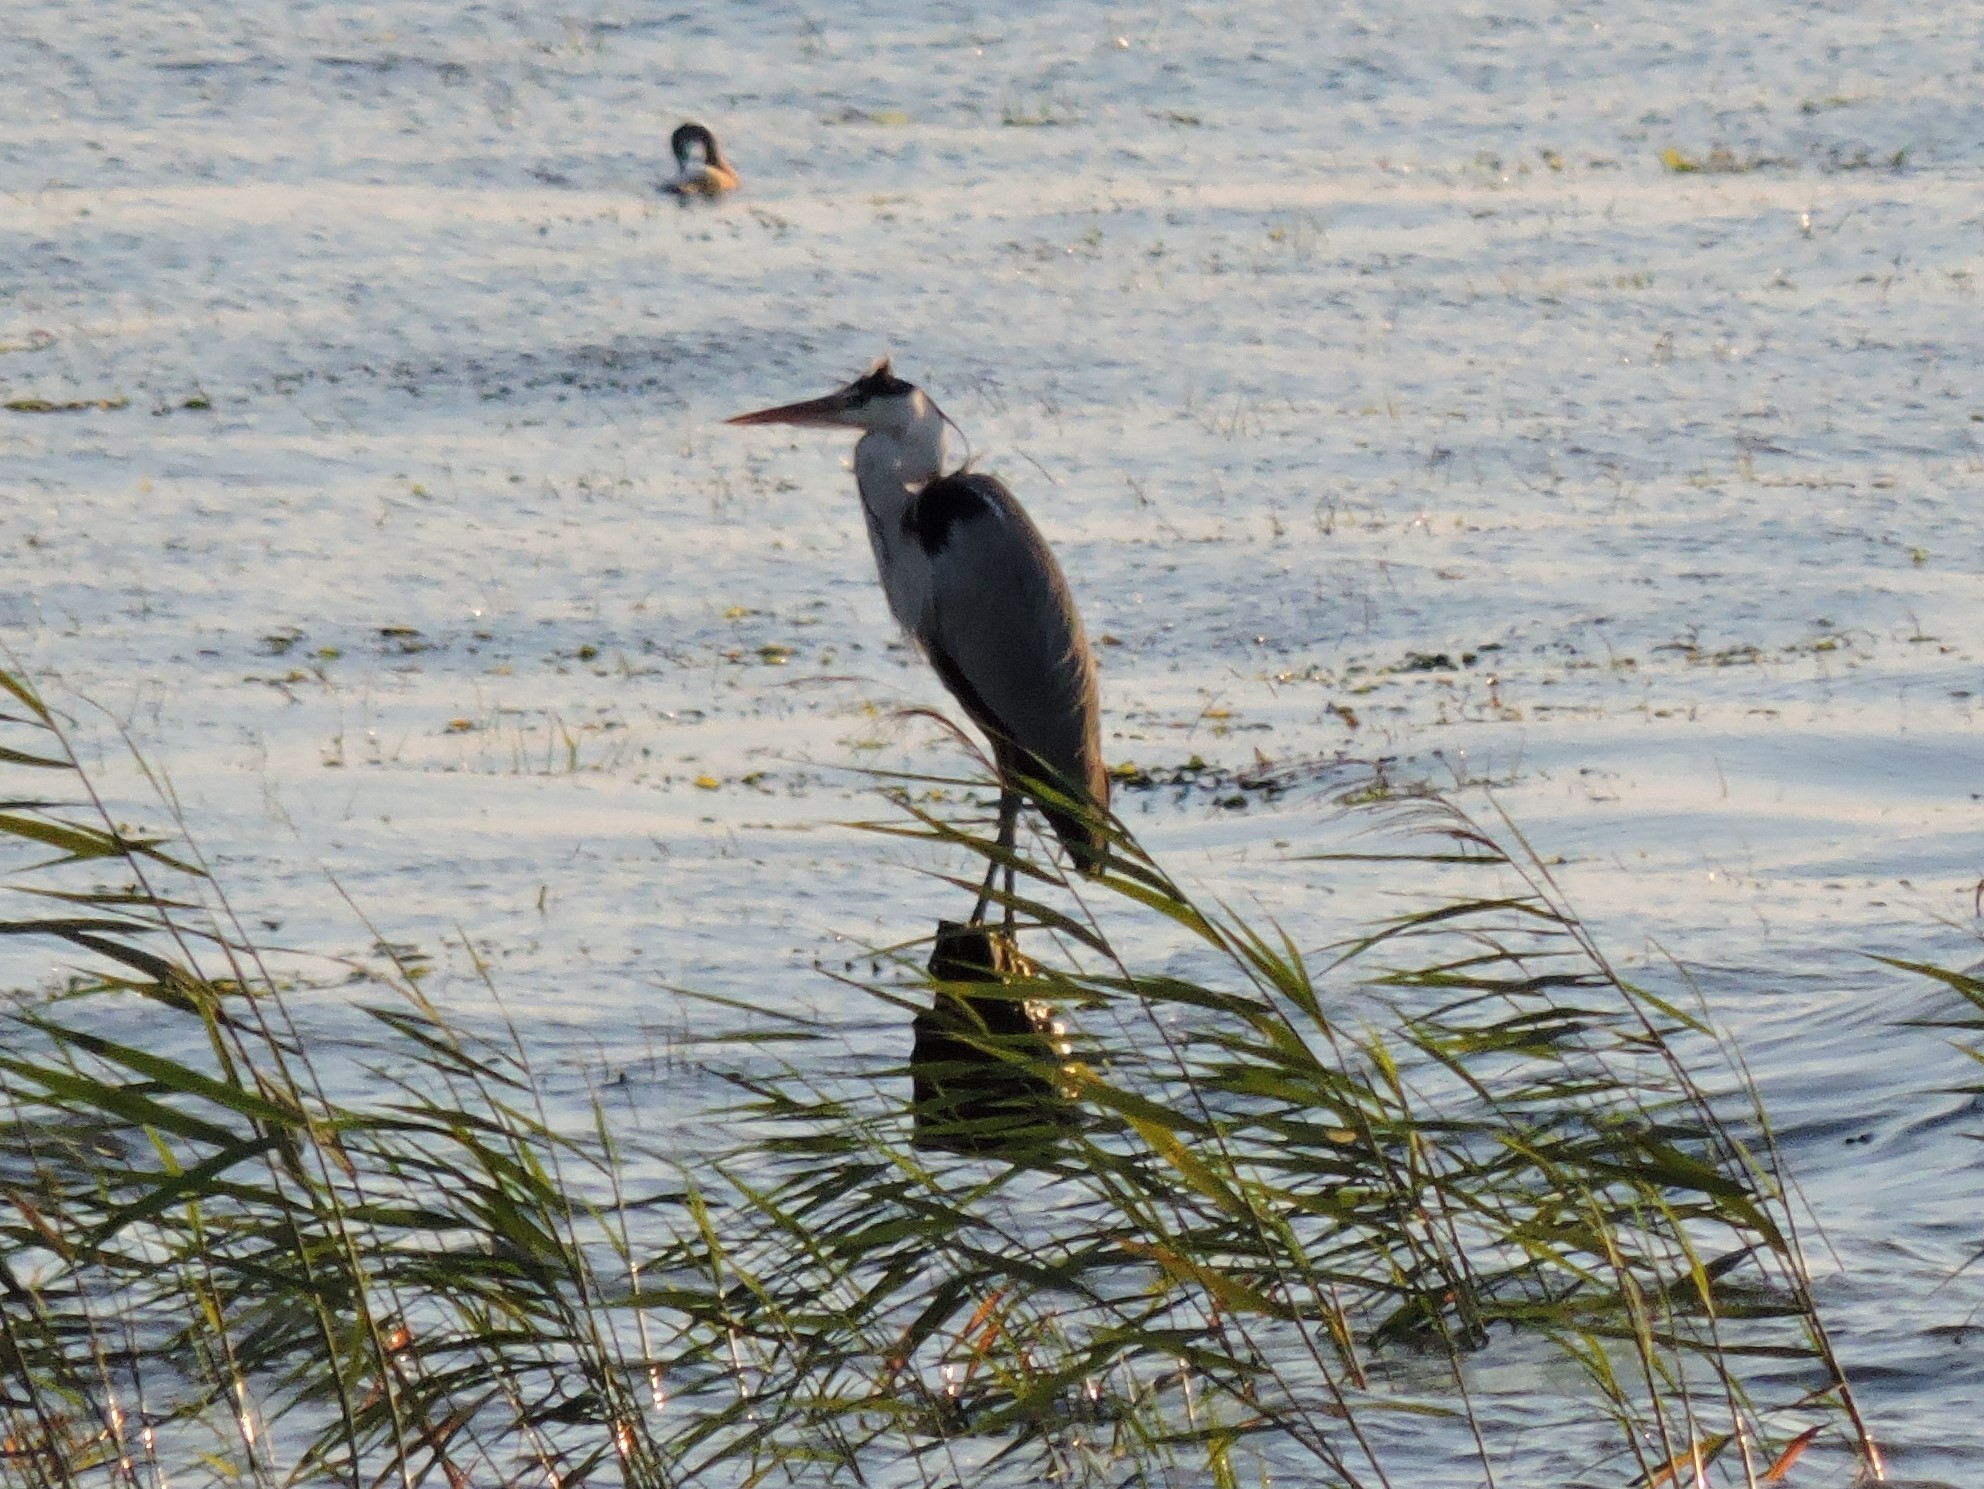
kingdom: Animalia
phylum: Chordata
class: Aves
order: Pelecaniformes
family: Ardeidae
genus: Ardea
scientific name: Ardea cinerea
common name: Grey heron
